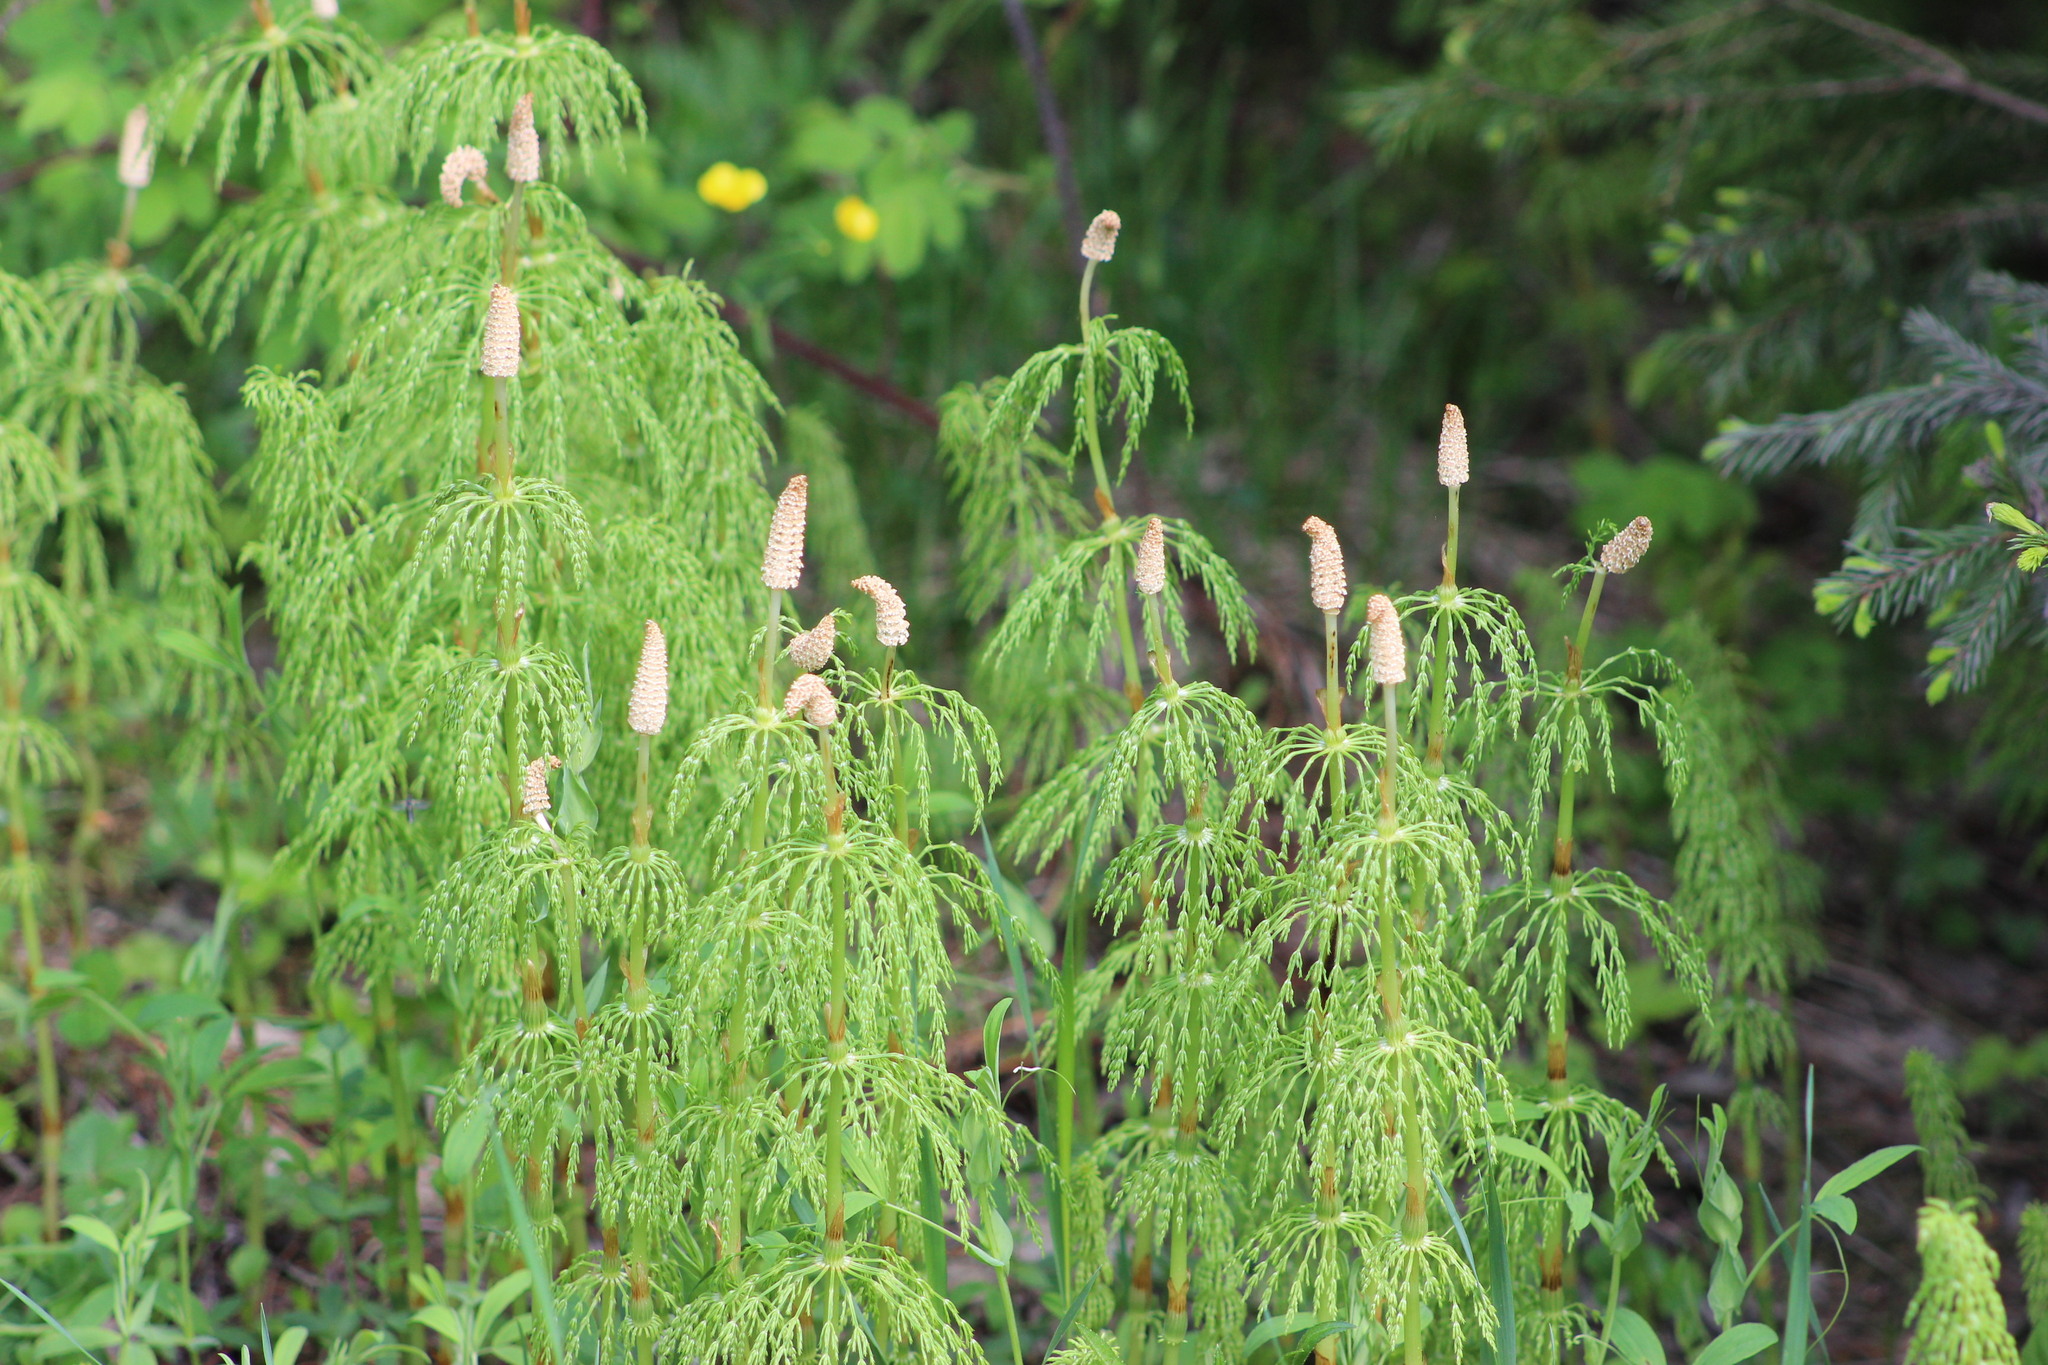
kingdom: Plantae
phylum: Tracheophyta
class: Polypodiopsida
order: Equisetales
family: Equisetaceae
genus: Equisetum
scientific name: Equisetum sylvaticum
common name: Wood horsetail
